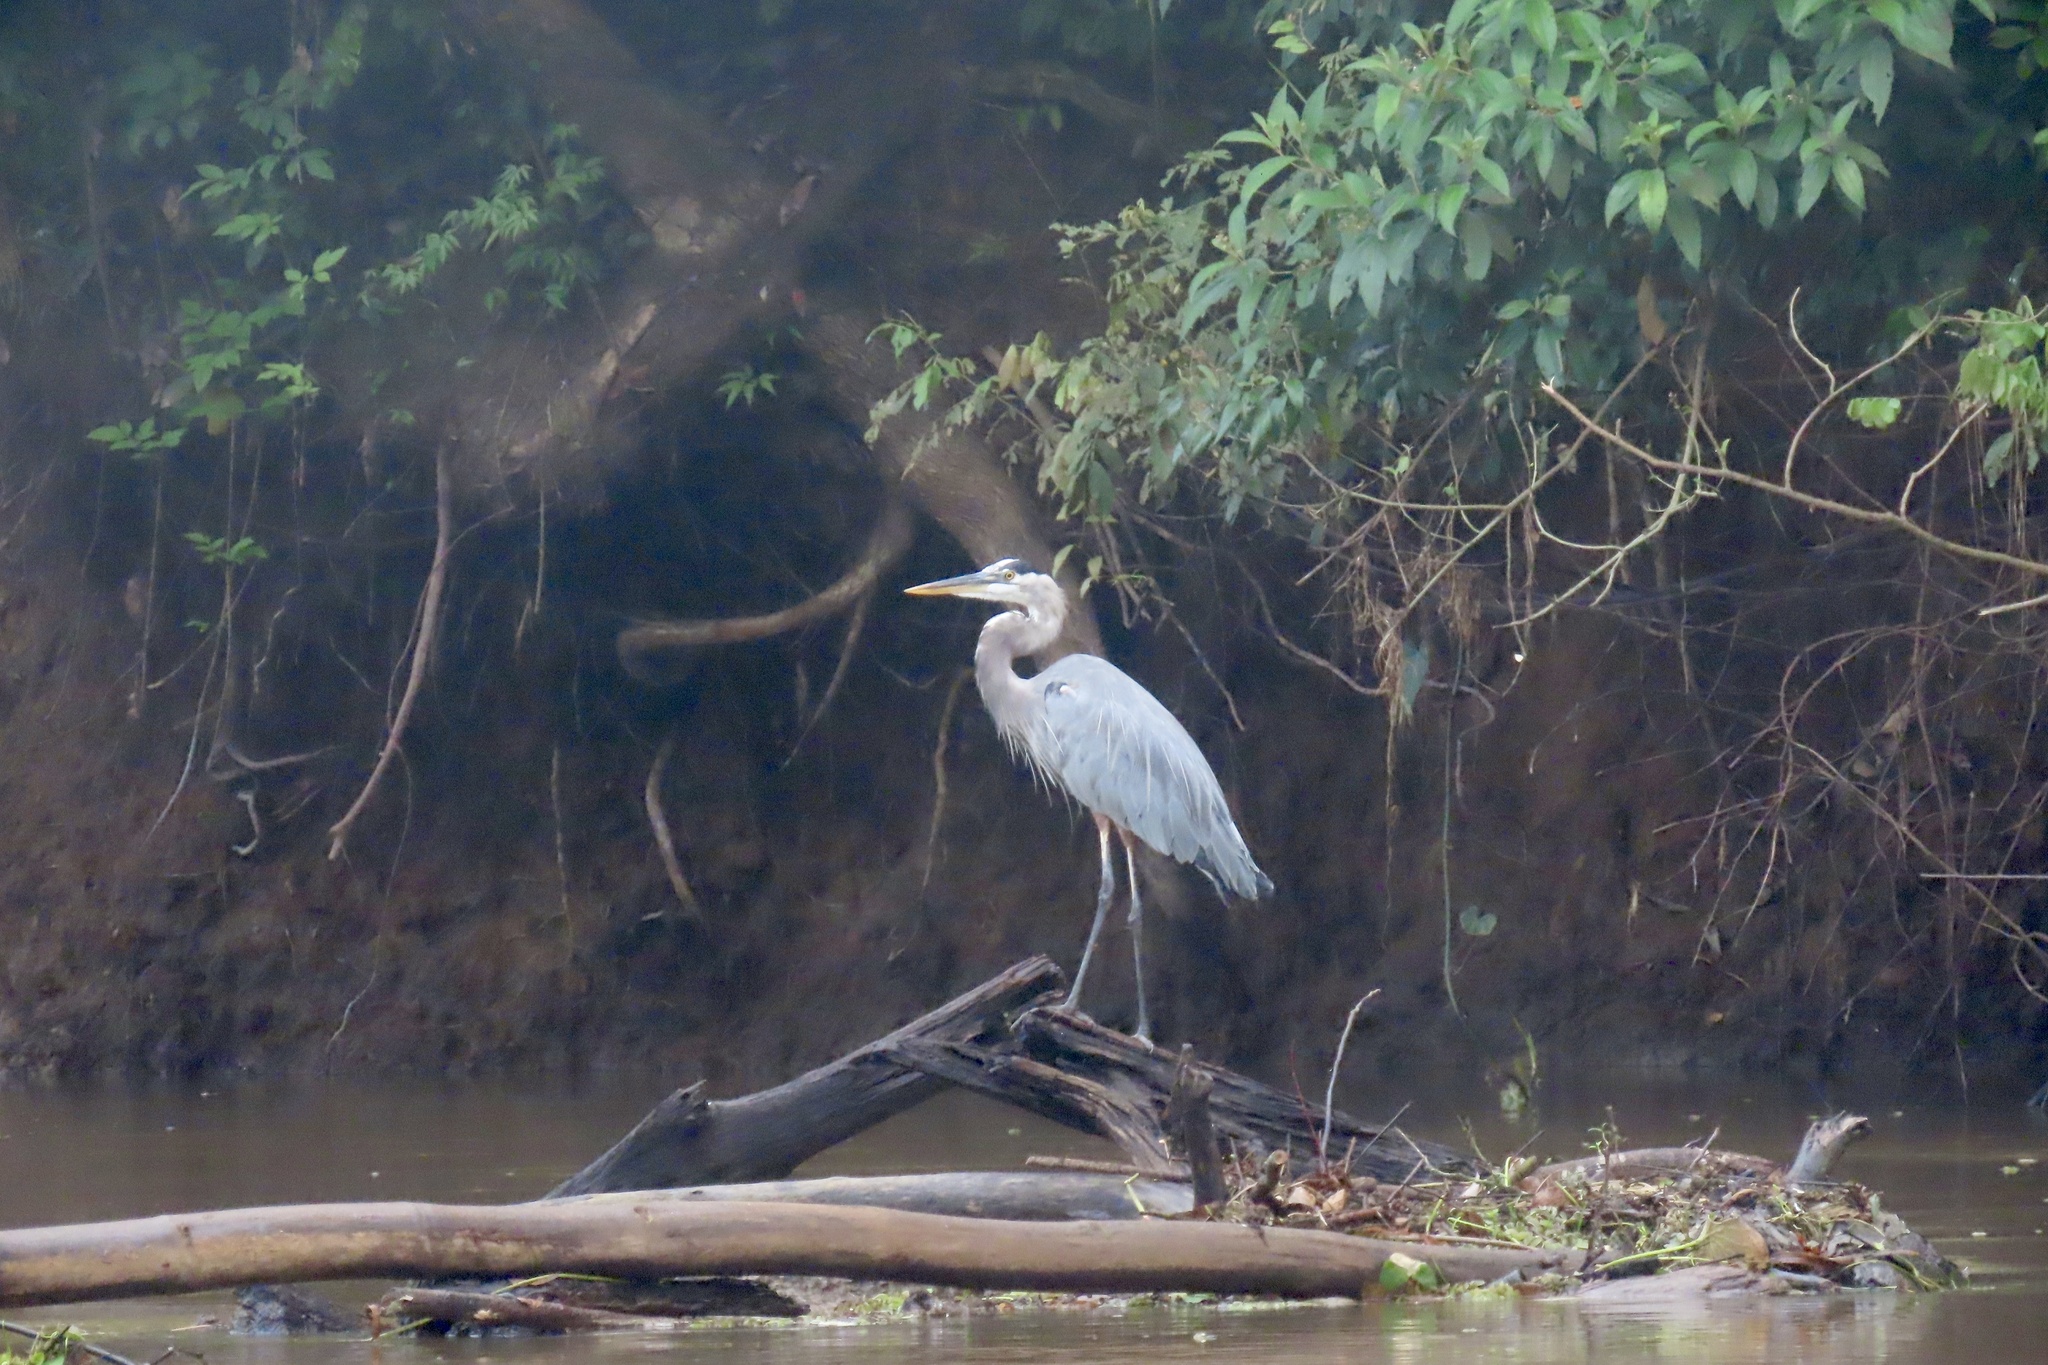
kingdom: Animalia
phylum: Chordata
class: Aves
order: Pelecaniformes
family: Ardeidae
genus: Ardea
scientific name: Ardea herodias
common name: Great blue heron
